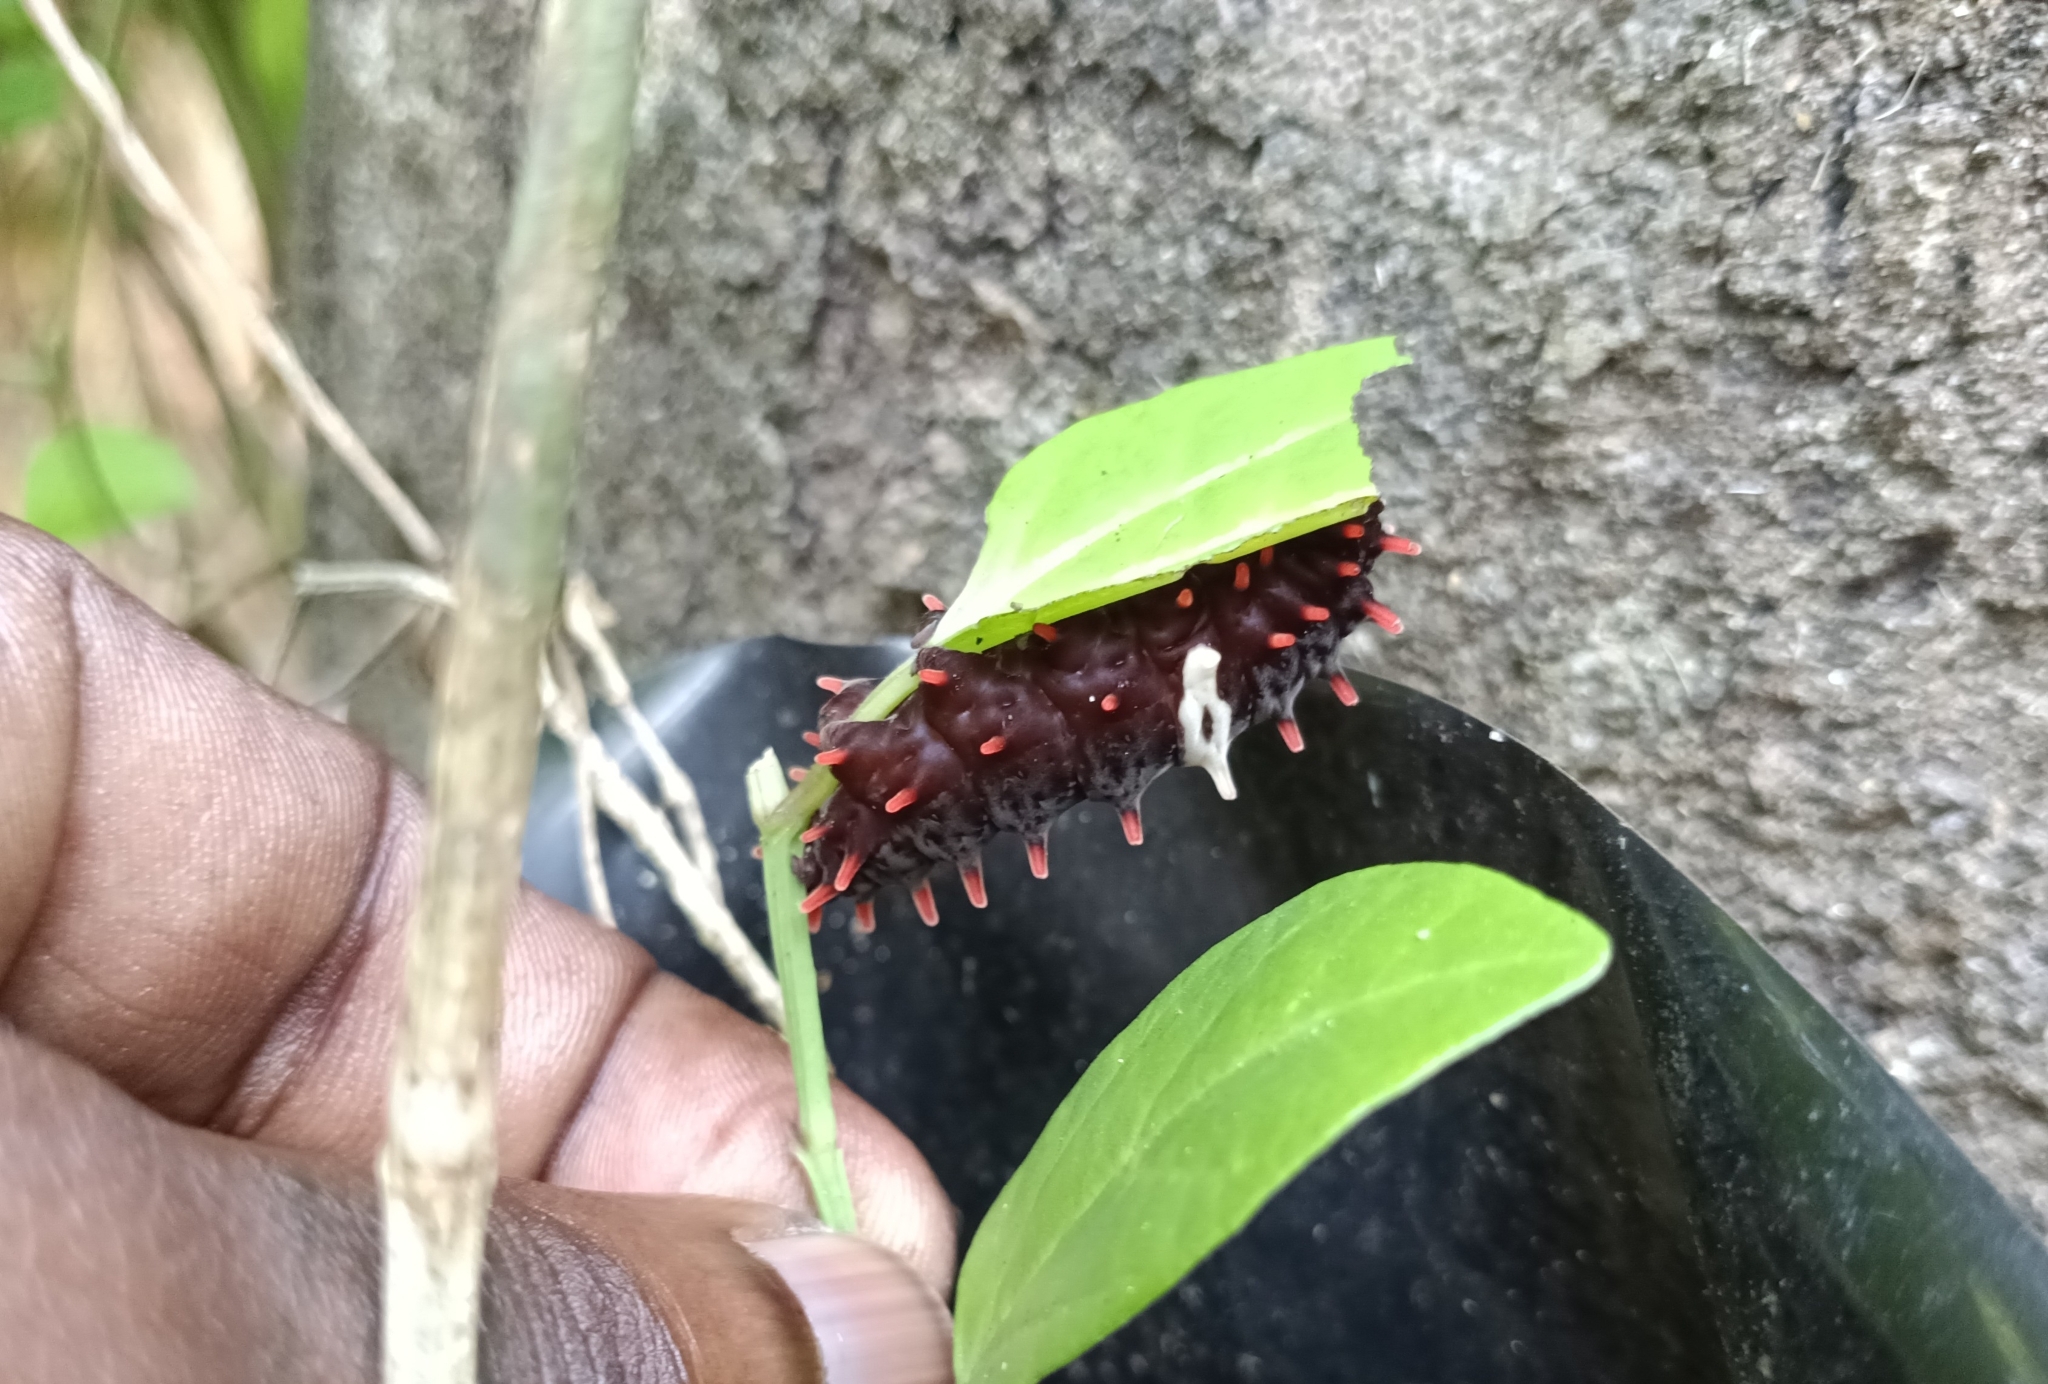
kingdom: Animalia
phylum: Arthropoda
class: Insecta
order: Lepidoptera
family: Papilionidae
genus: Pachliopta
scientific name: Pachliopta aristolochiae
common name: Common rose
